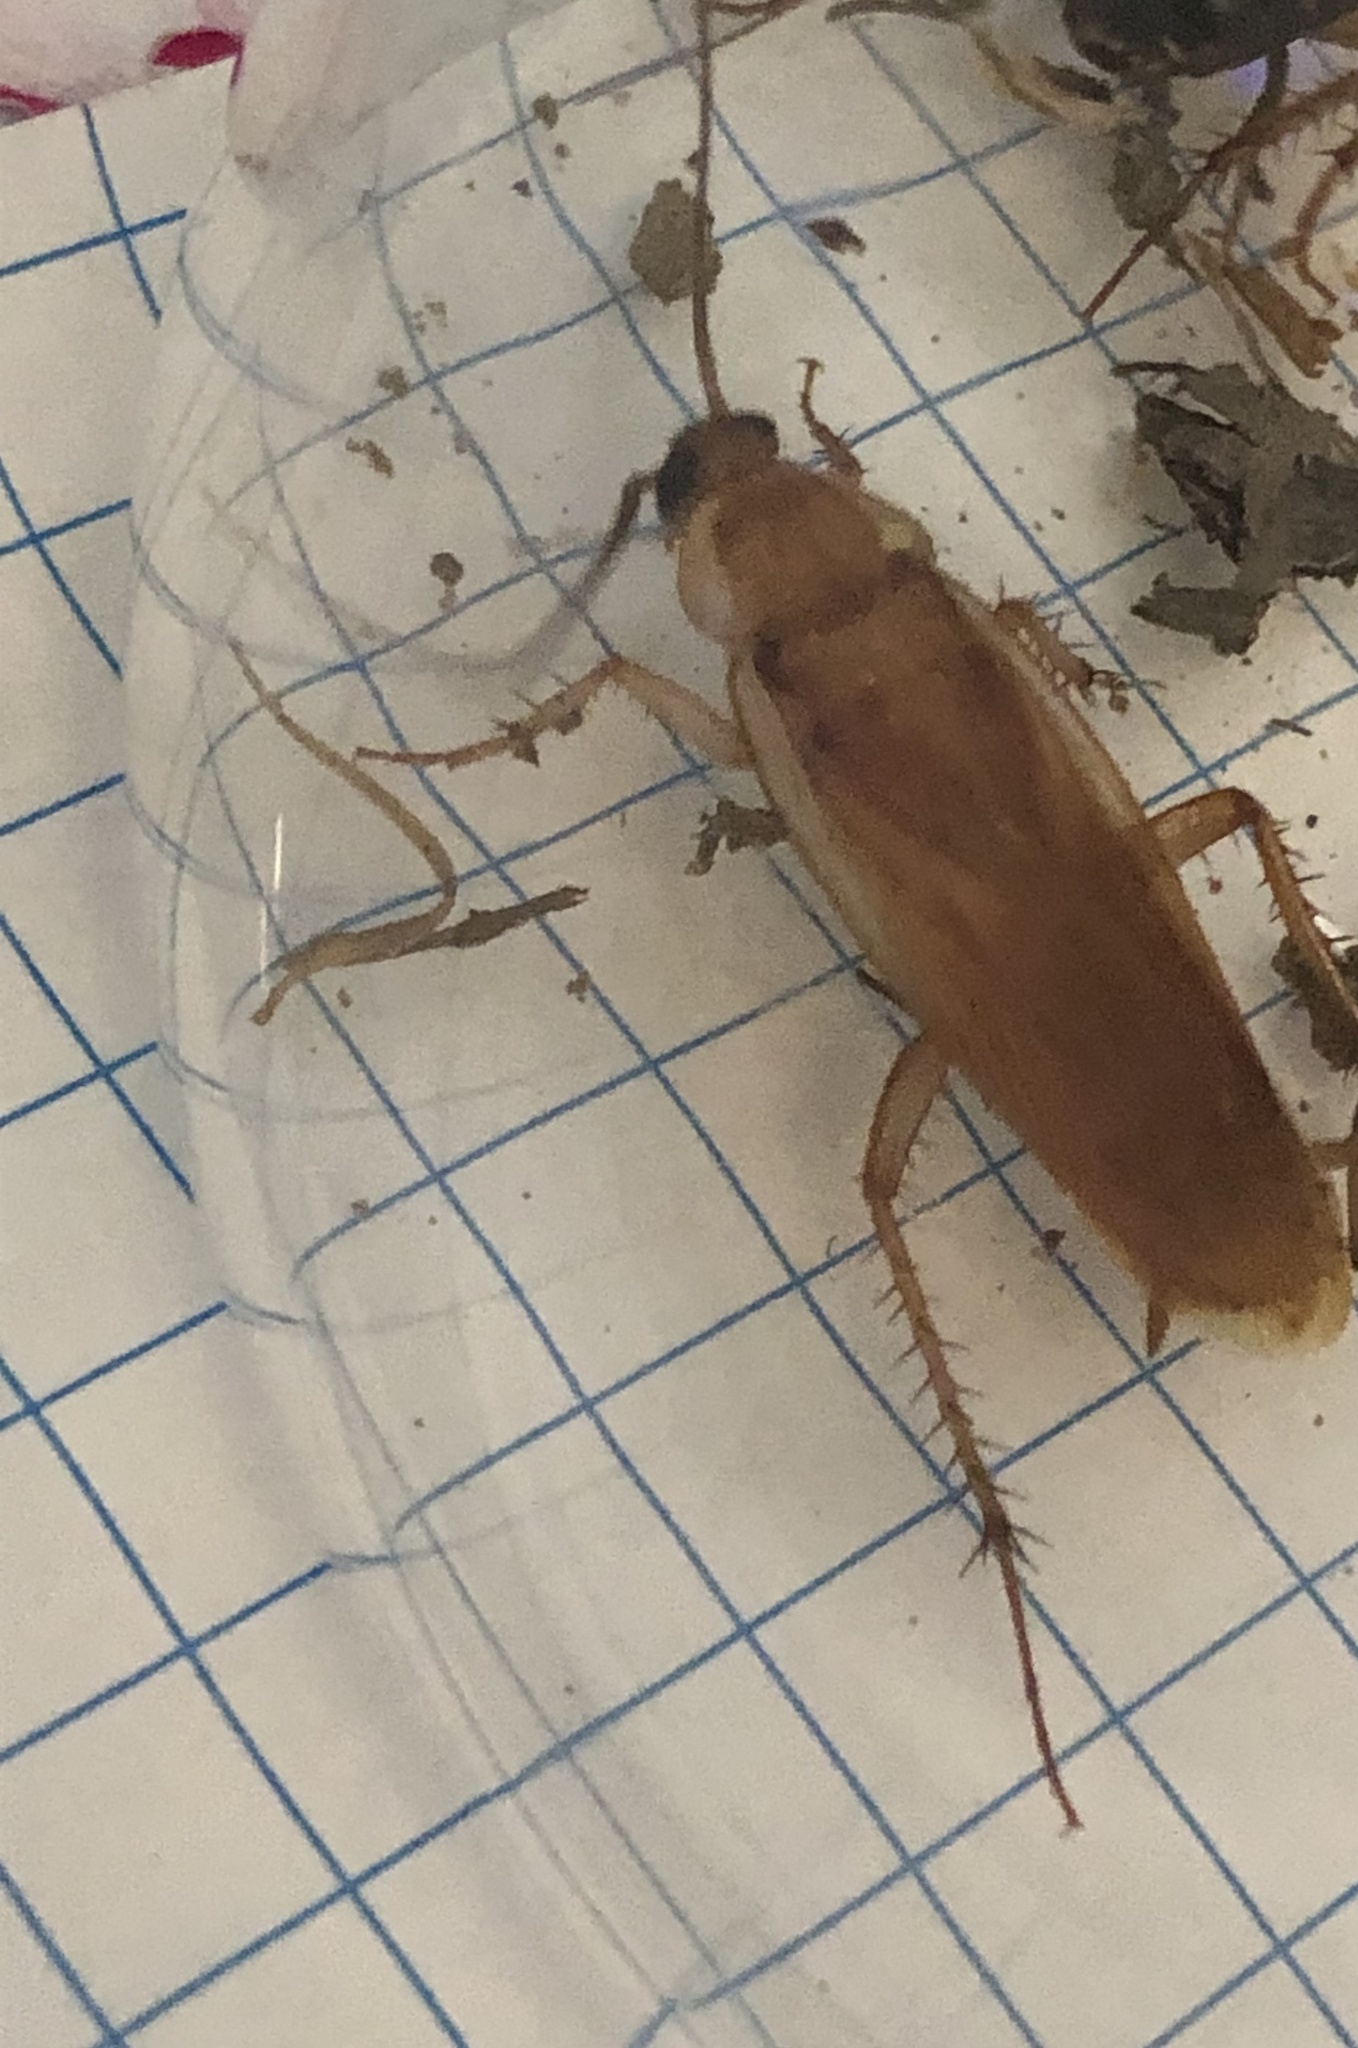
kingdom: Animalia
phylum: Arthropoda
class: Insecta
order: Blattodea
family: Blattidae
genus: Periplaneta
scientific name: Periplaneta lateralis
